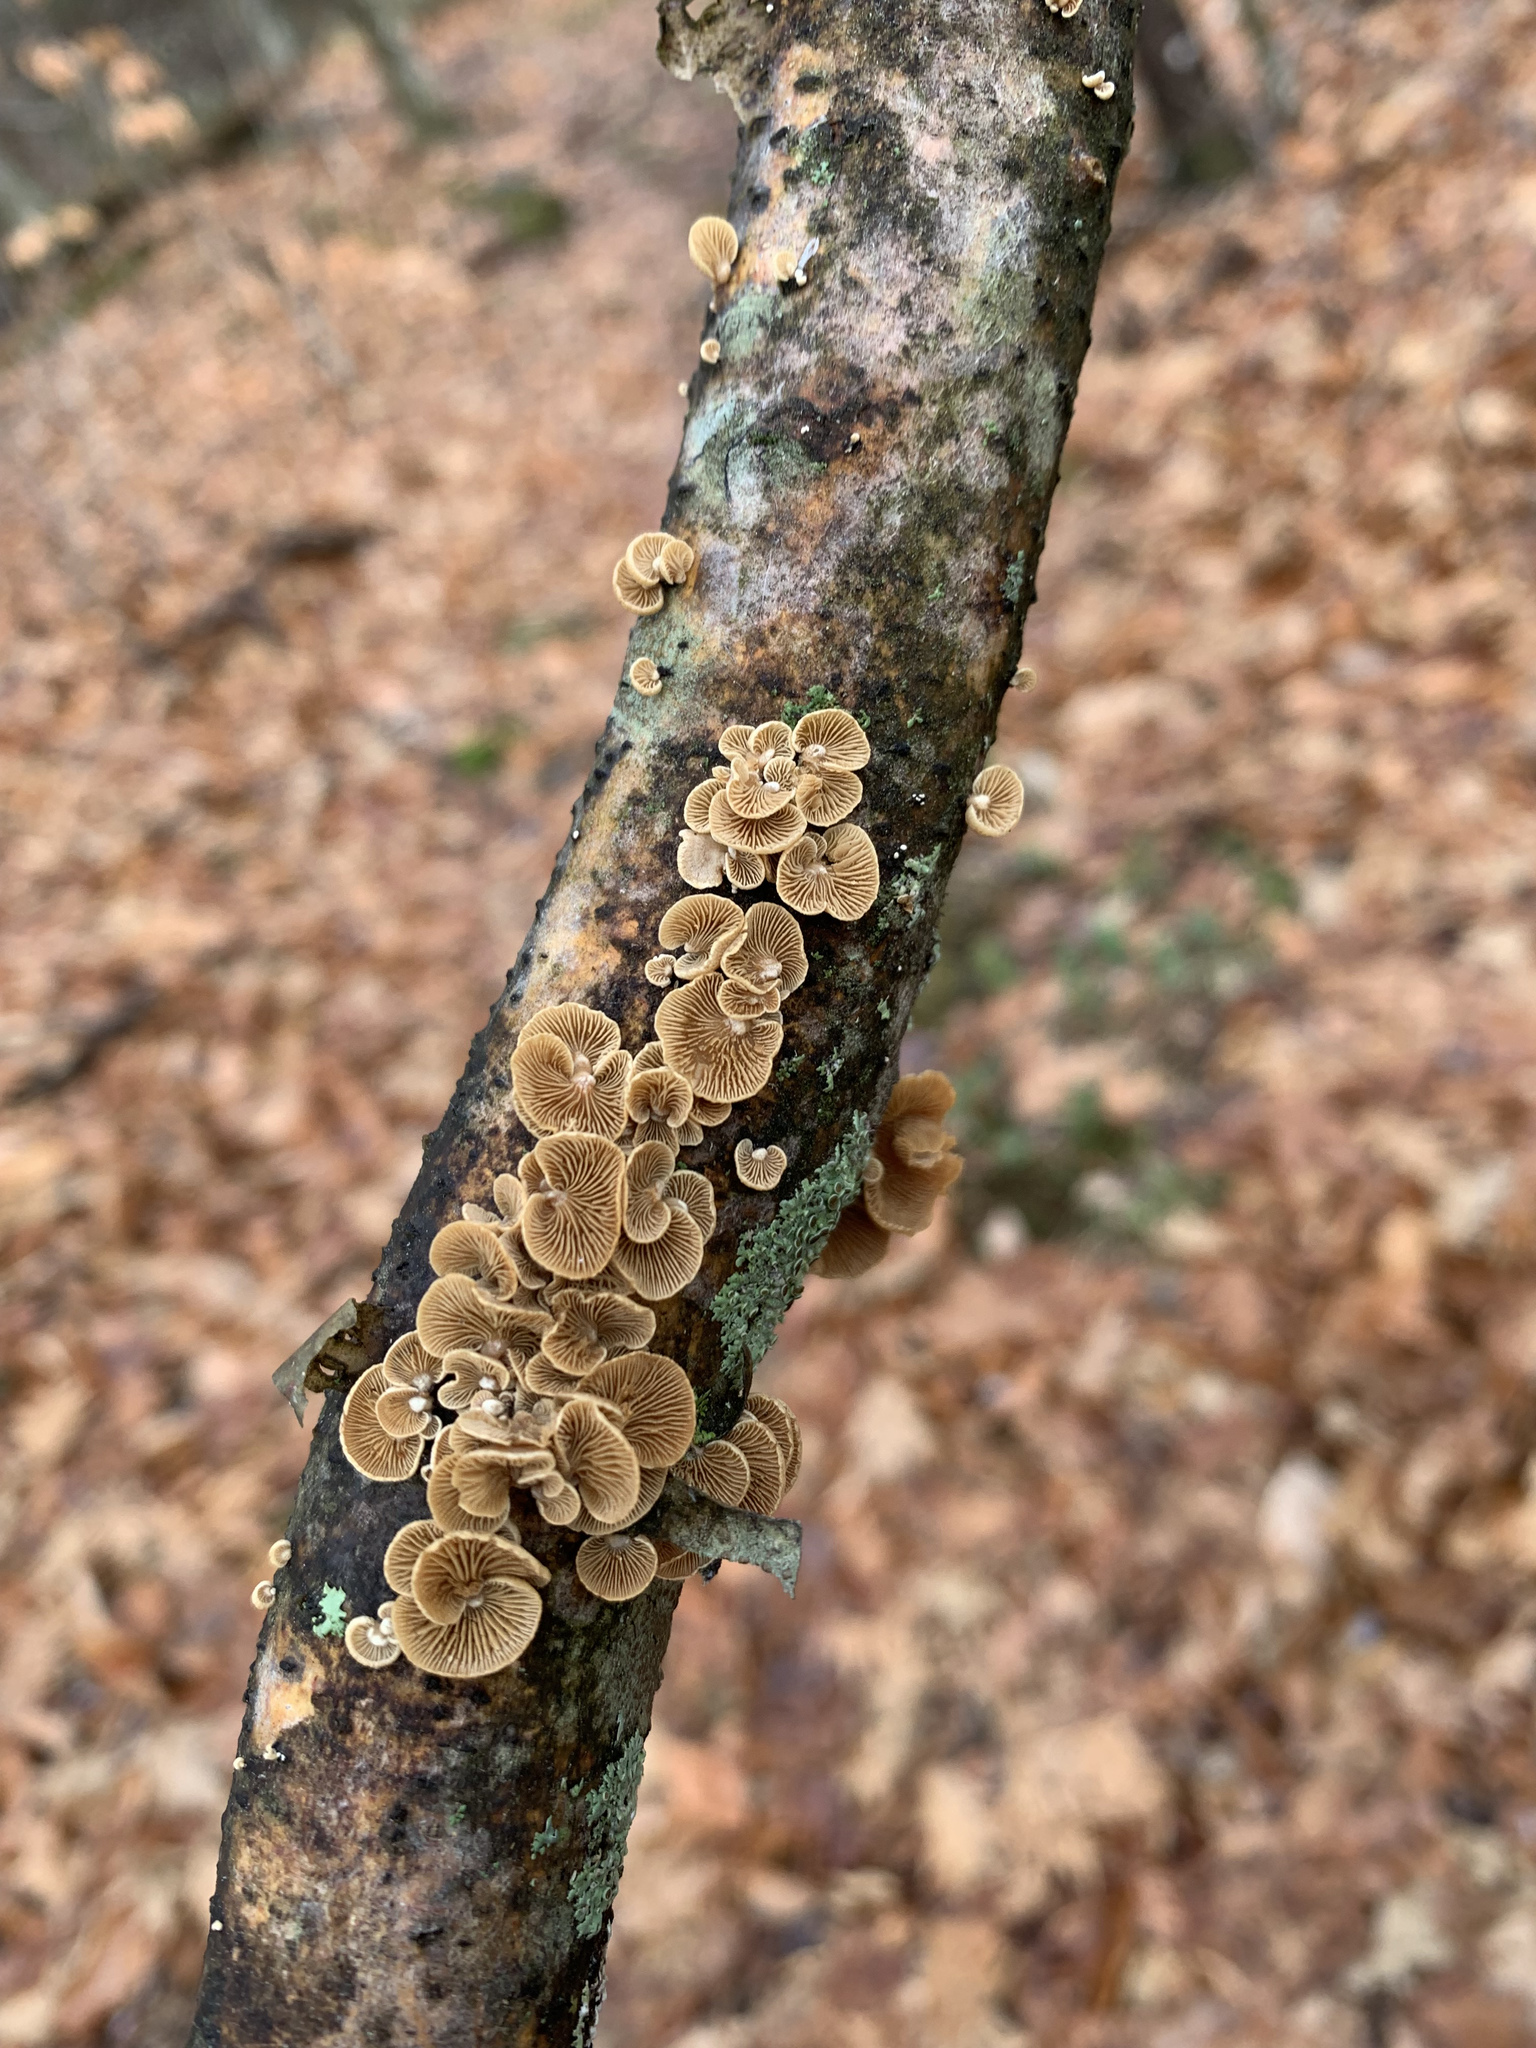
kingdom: Fungi
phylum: Basidiomycota
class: Agaricomycetes
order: Agaricales
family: Mycenaceae
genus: Panellus
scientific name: Panellus stipticus
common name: Bitter oysterling
